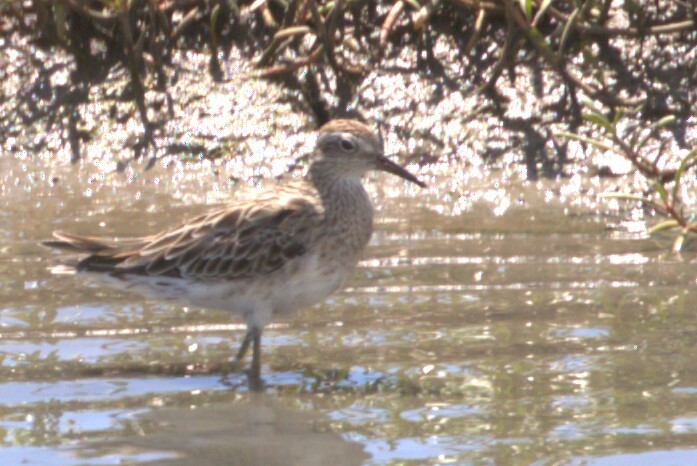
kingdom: Animalia
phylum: Chordata
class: Aves
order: Charadriiformes
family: Scolopacidae
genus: Calidris
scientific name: Calidris acuminata
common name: Sharp-tailed sandpiper
